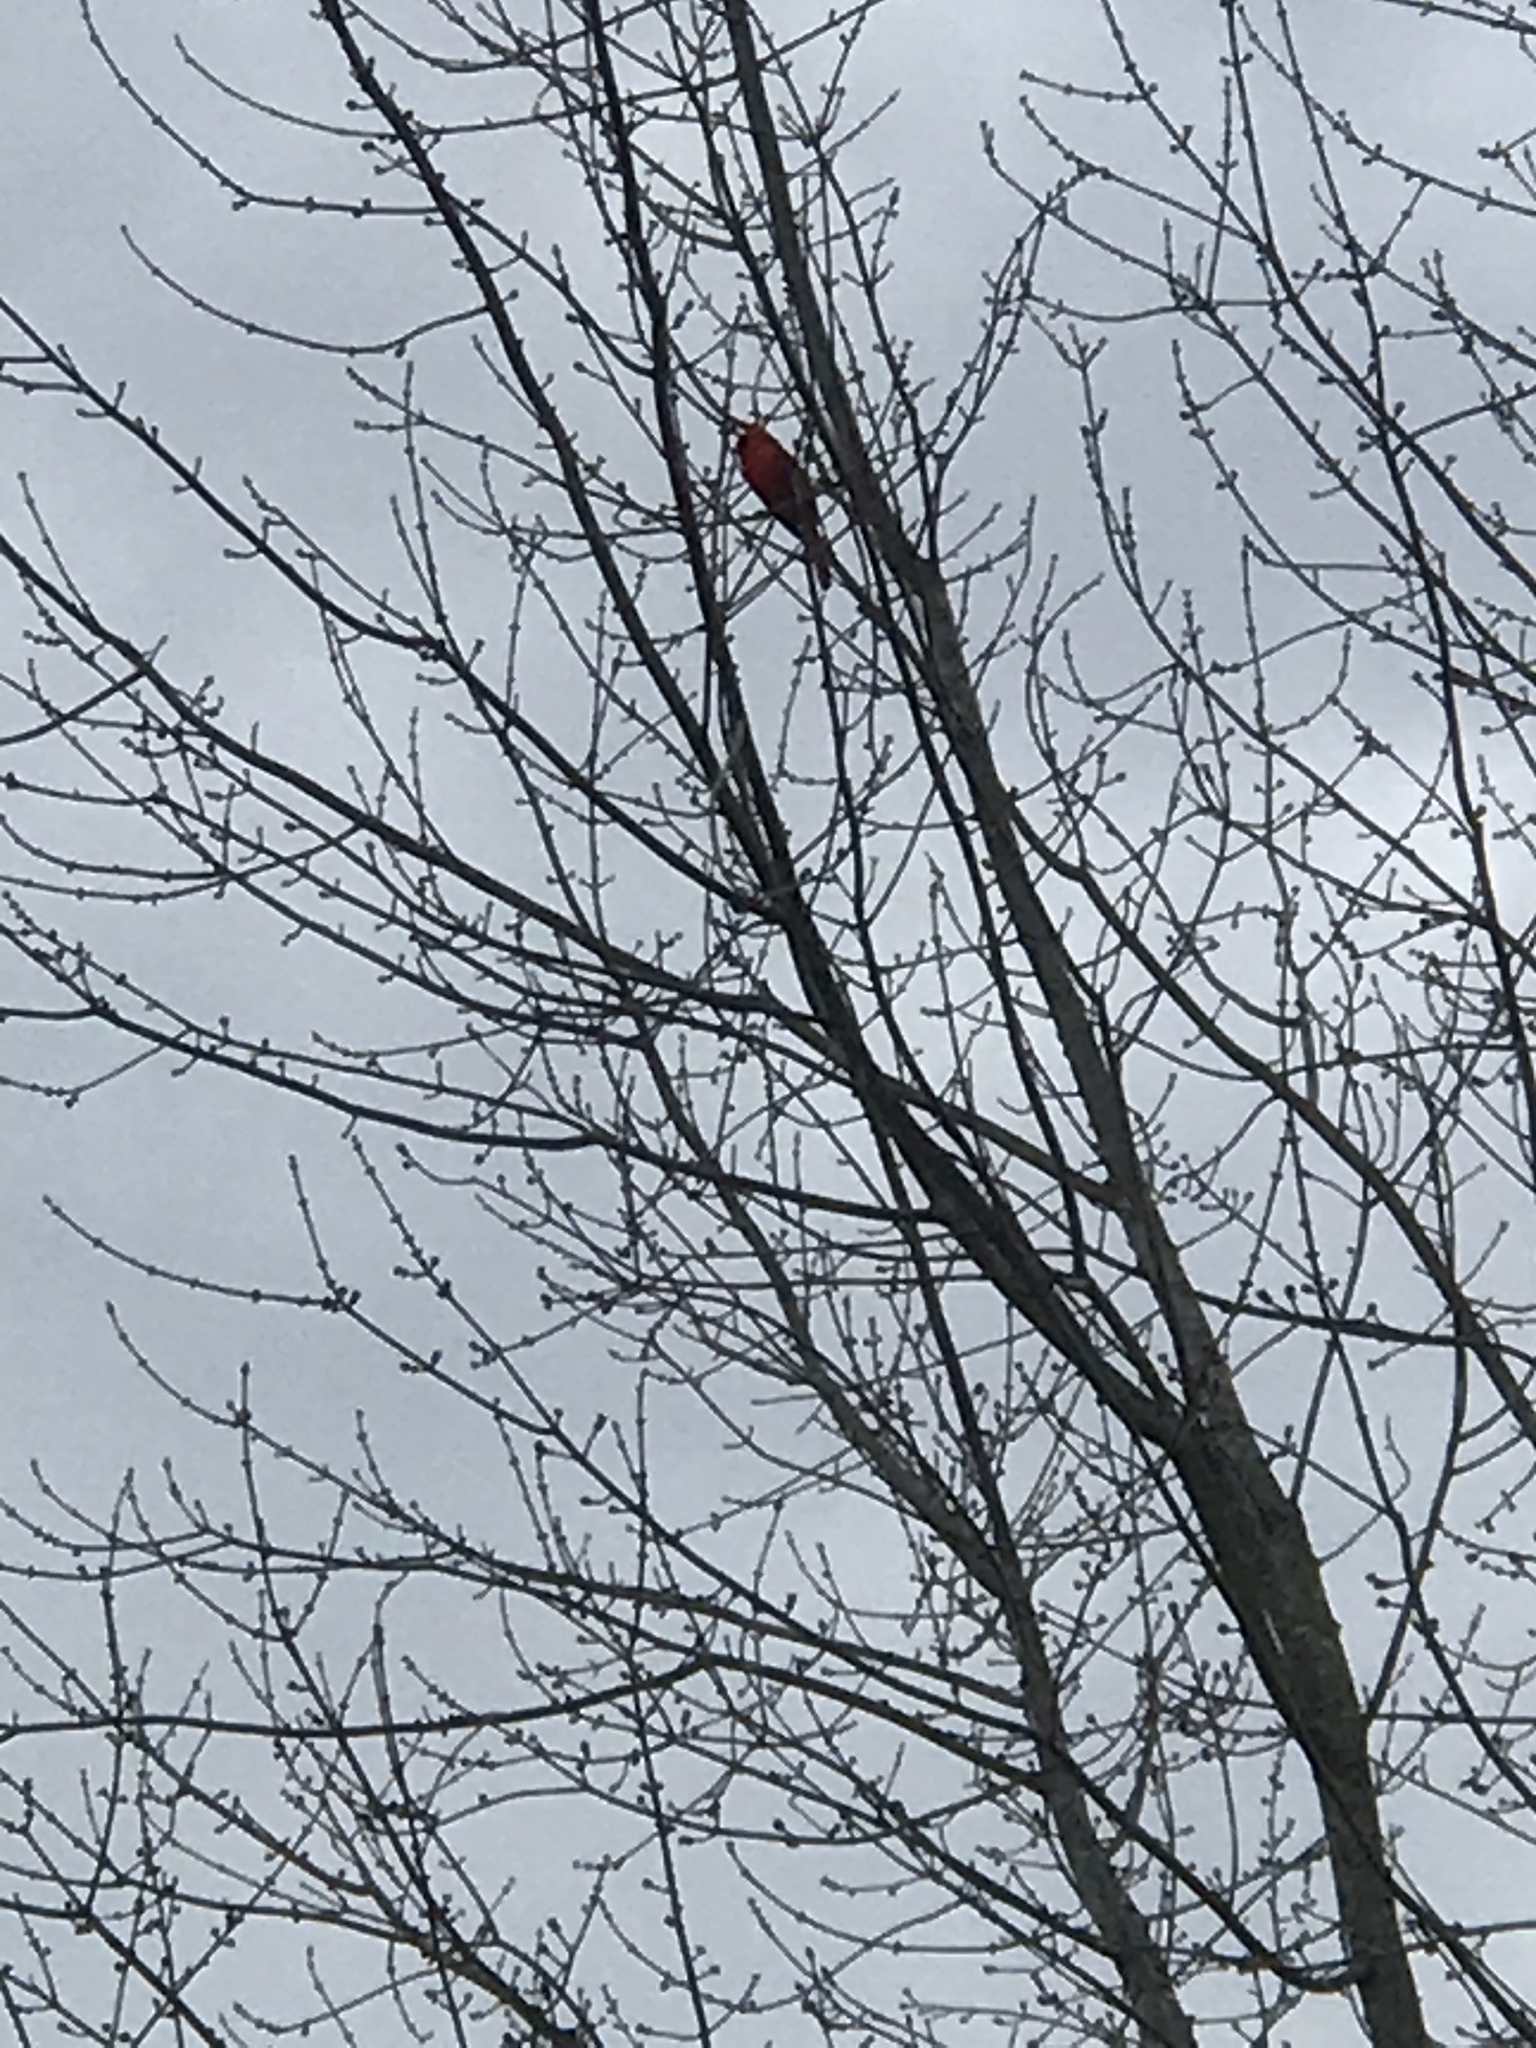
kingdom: Animalia
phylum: Chordata
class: Aves
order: Passeriformes
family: Cardinalidae
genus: Cardinalis
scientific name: Cardinalis cardinalis
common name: Northern cardinal
